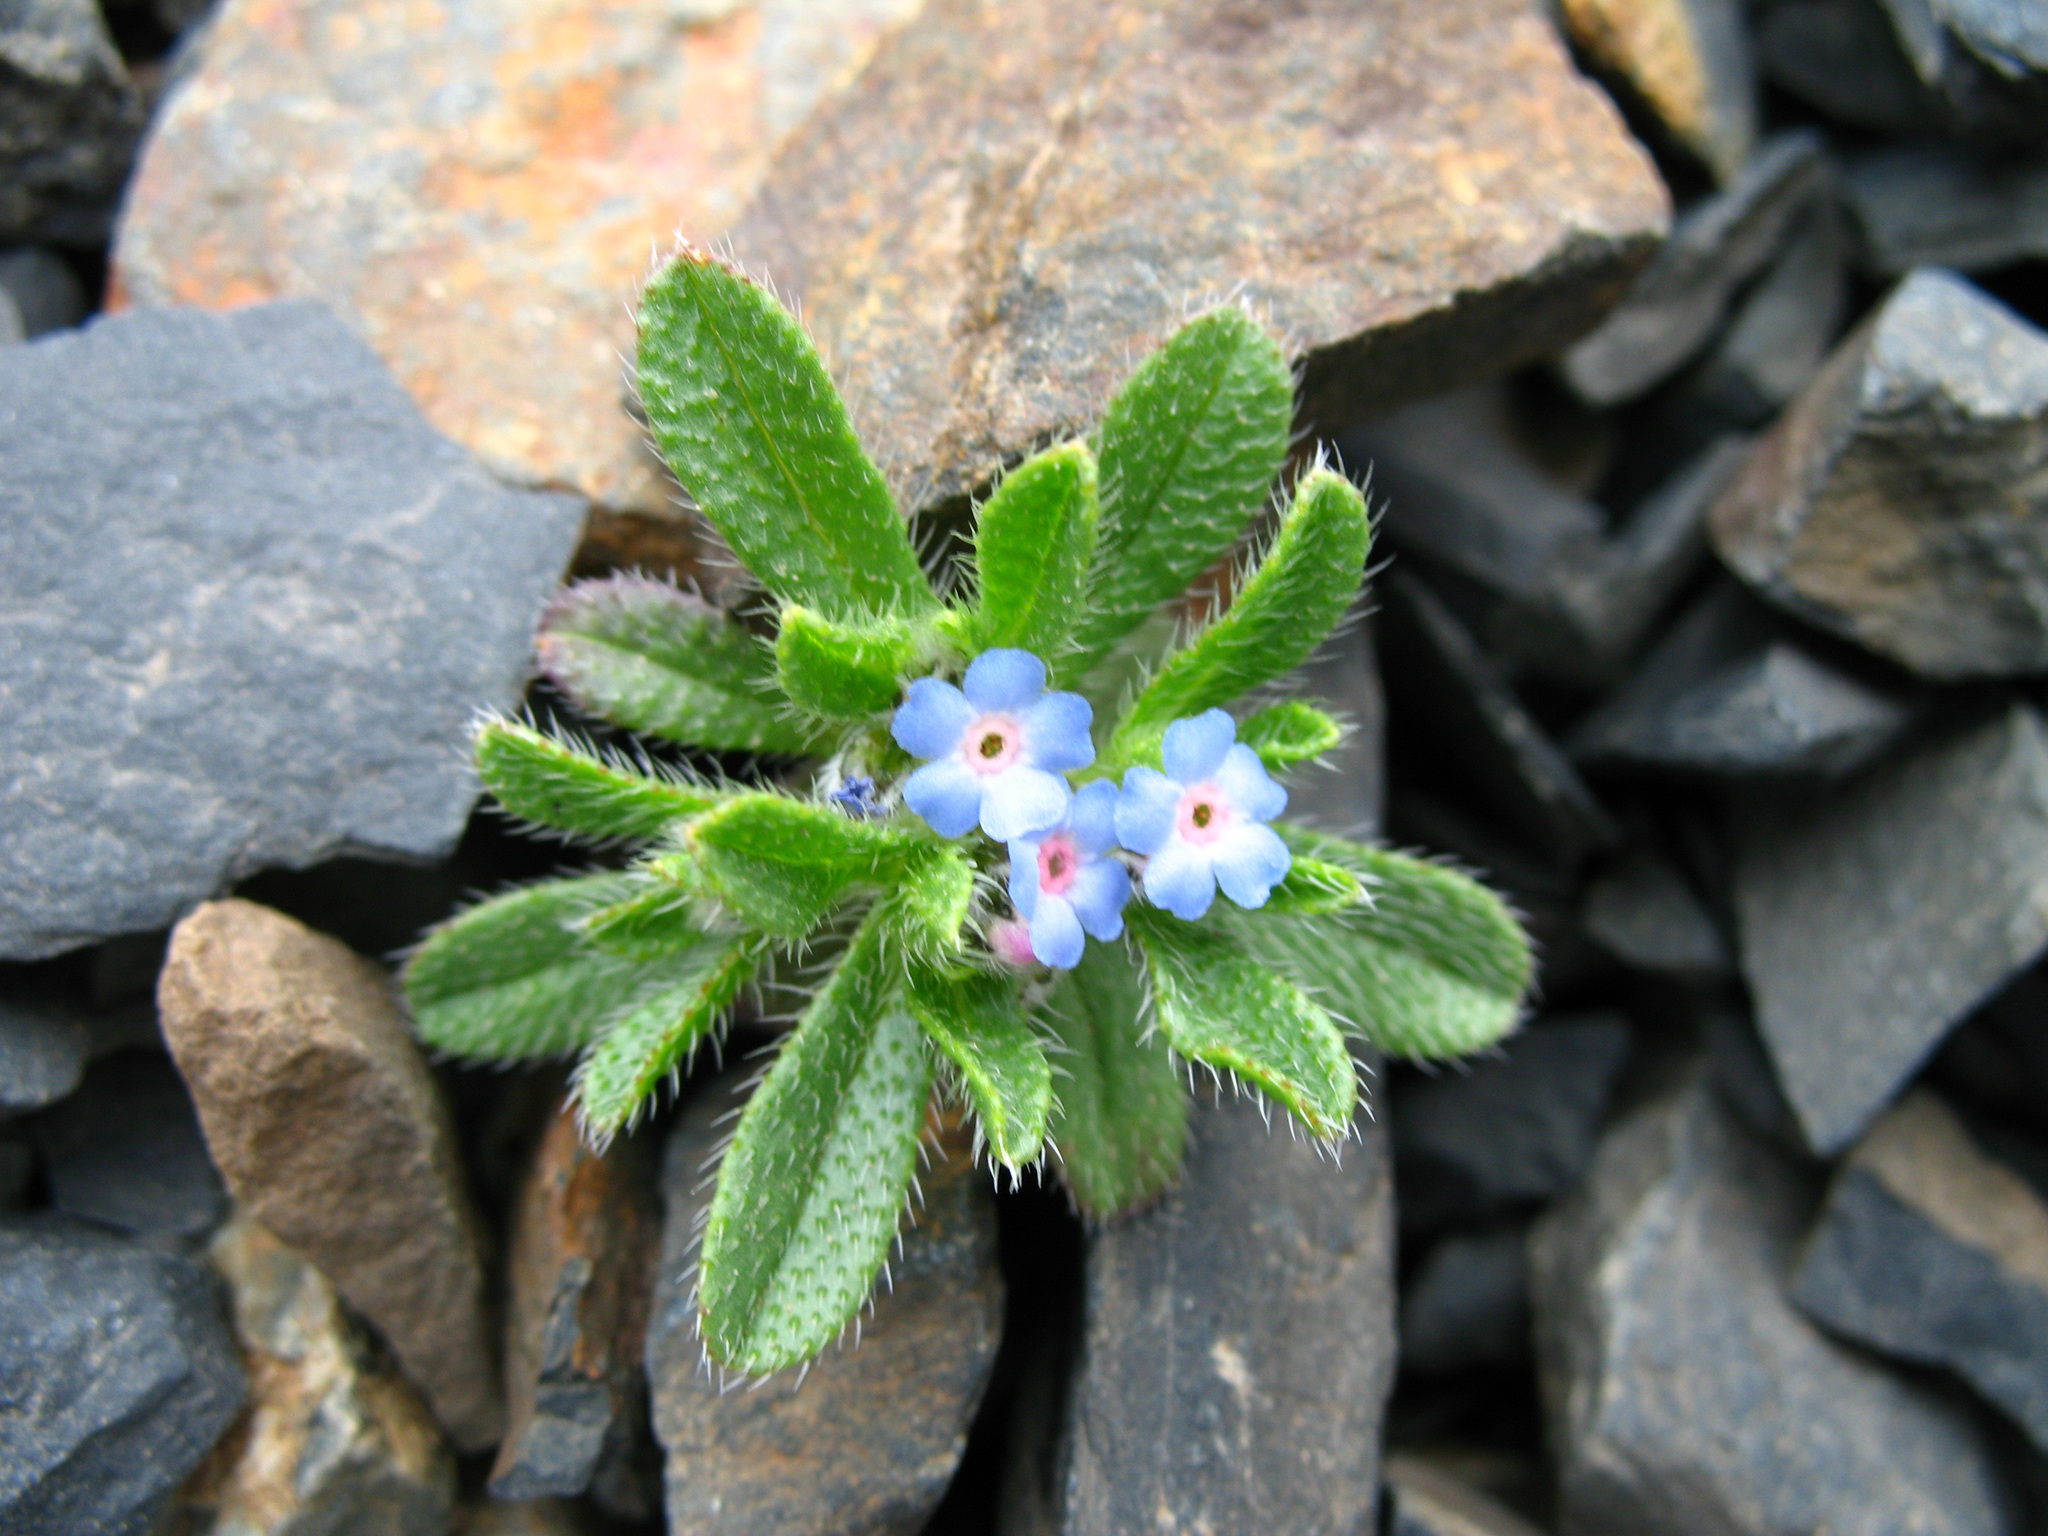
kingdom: Plantae
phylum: Tracheophyta
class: Magnoliopsida
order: Boraginales
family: Boraginaceae
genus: Myosotis
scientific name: Myosotis involucrata
